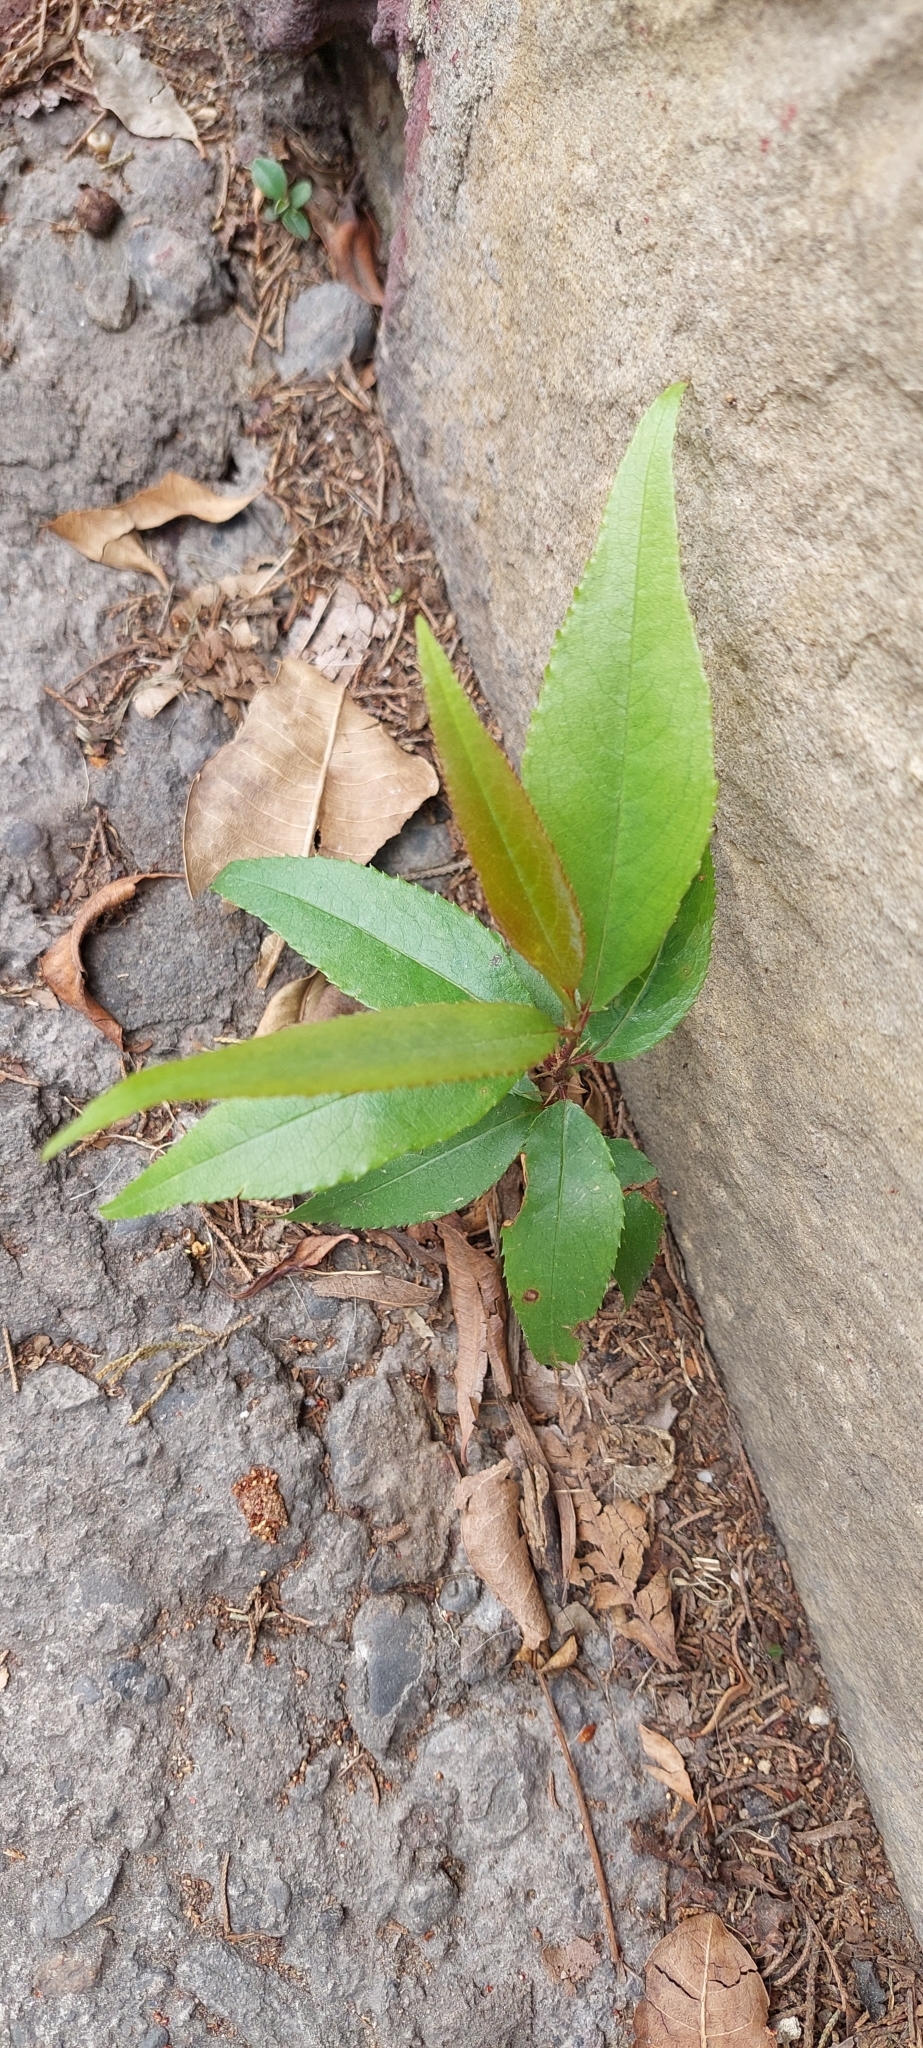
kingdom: Plantae
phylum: Tracheophyta
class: Magnoliopsida
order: Rosales
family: Rosaceae
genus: Prunus
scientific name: Prunus serotina
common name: Black cherry
